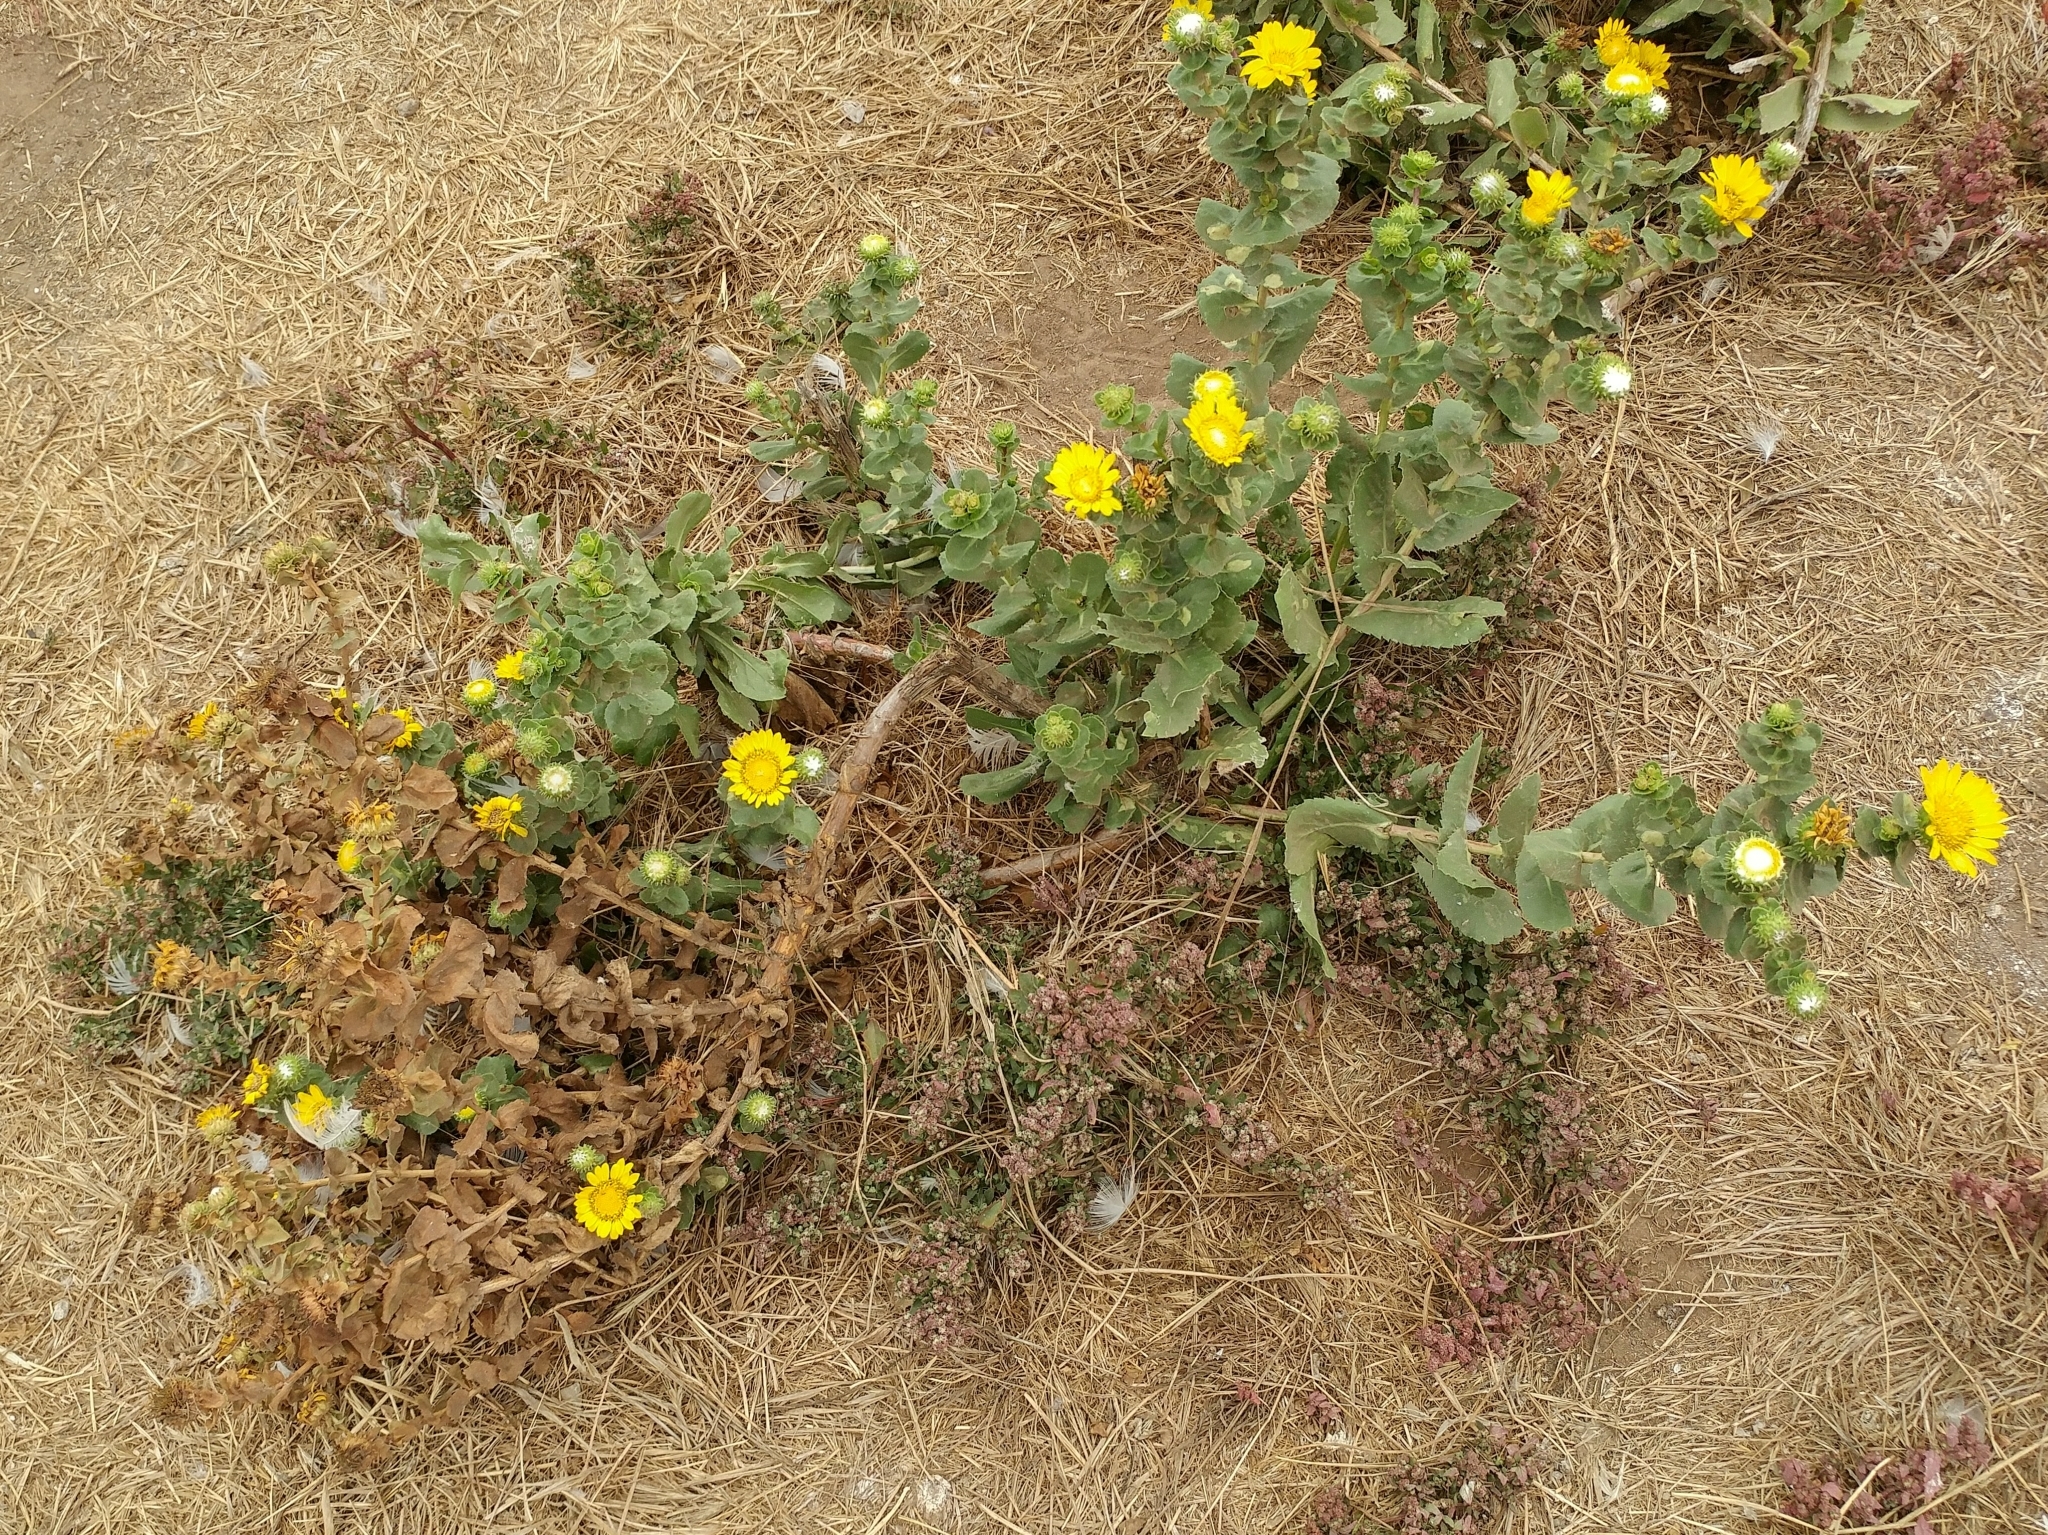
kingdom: Plantae
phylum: Tracheophyta
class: Magnoliopsida
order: Asterales
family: Asteraceae
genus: Grindelia
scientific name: Grindelia hirsutula
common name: Hairy gumweed
